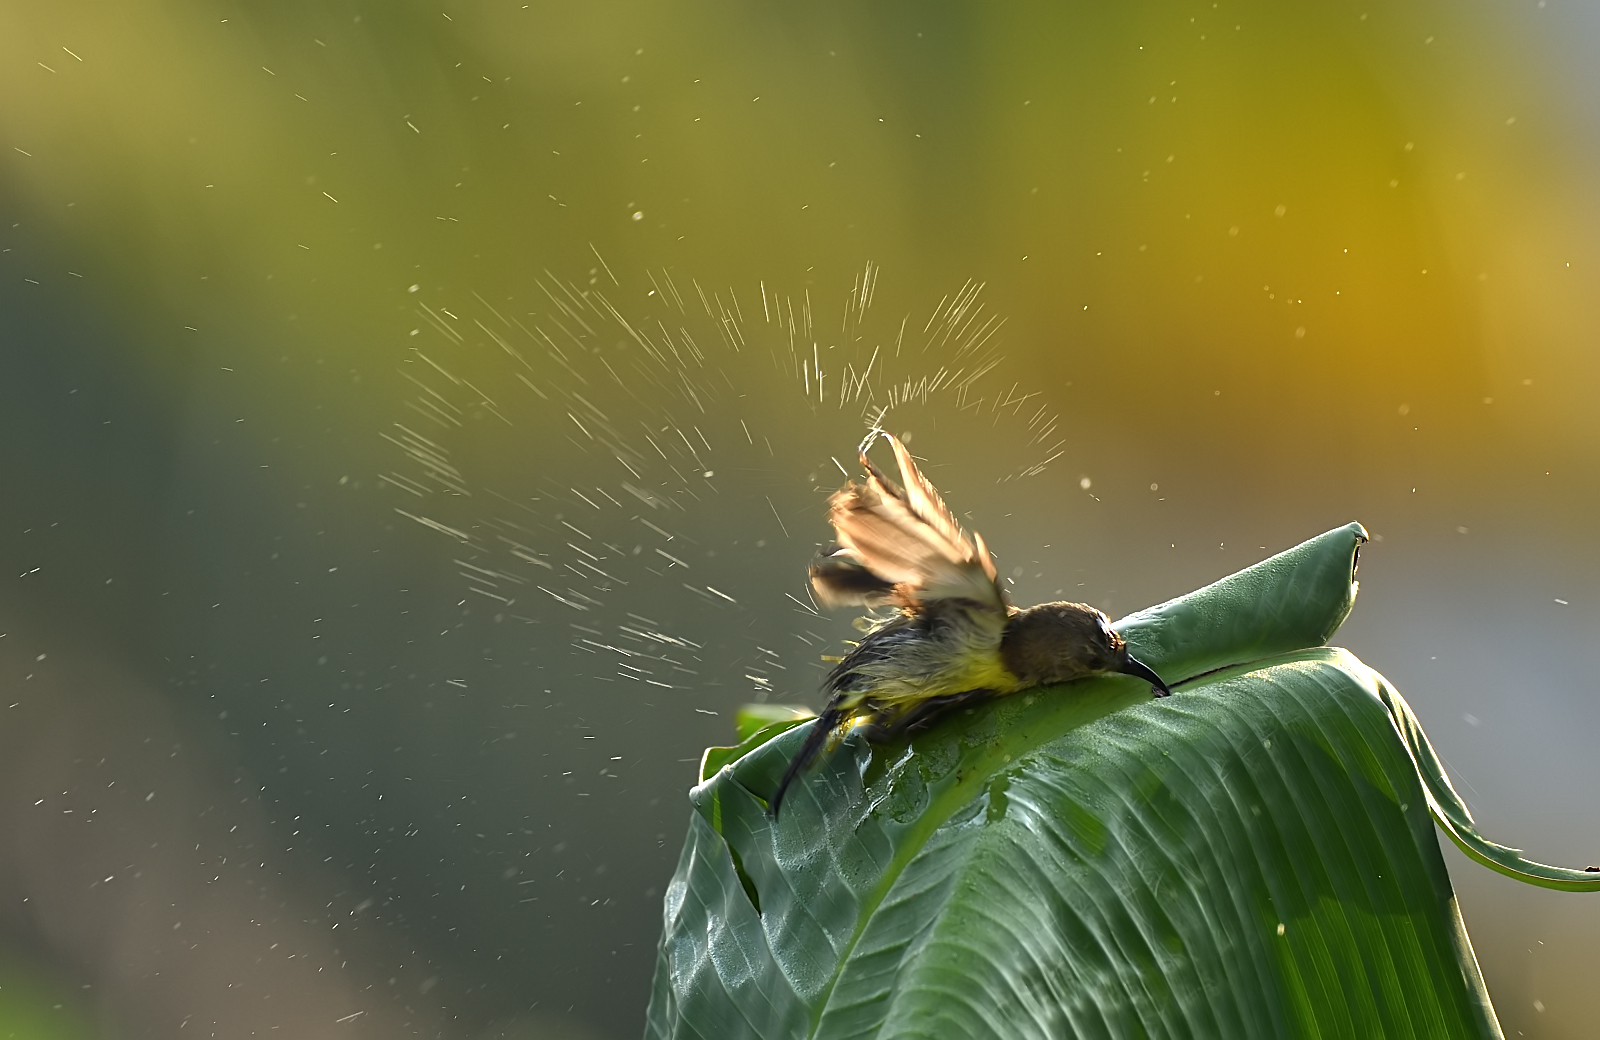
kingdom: Animalia
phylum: Chordata
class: Aves
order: Passeriformes
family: Nectariniidae
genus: Leptocoma
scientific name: Leptocoma zeylonica
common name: Purple-rumped sunbird
